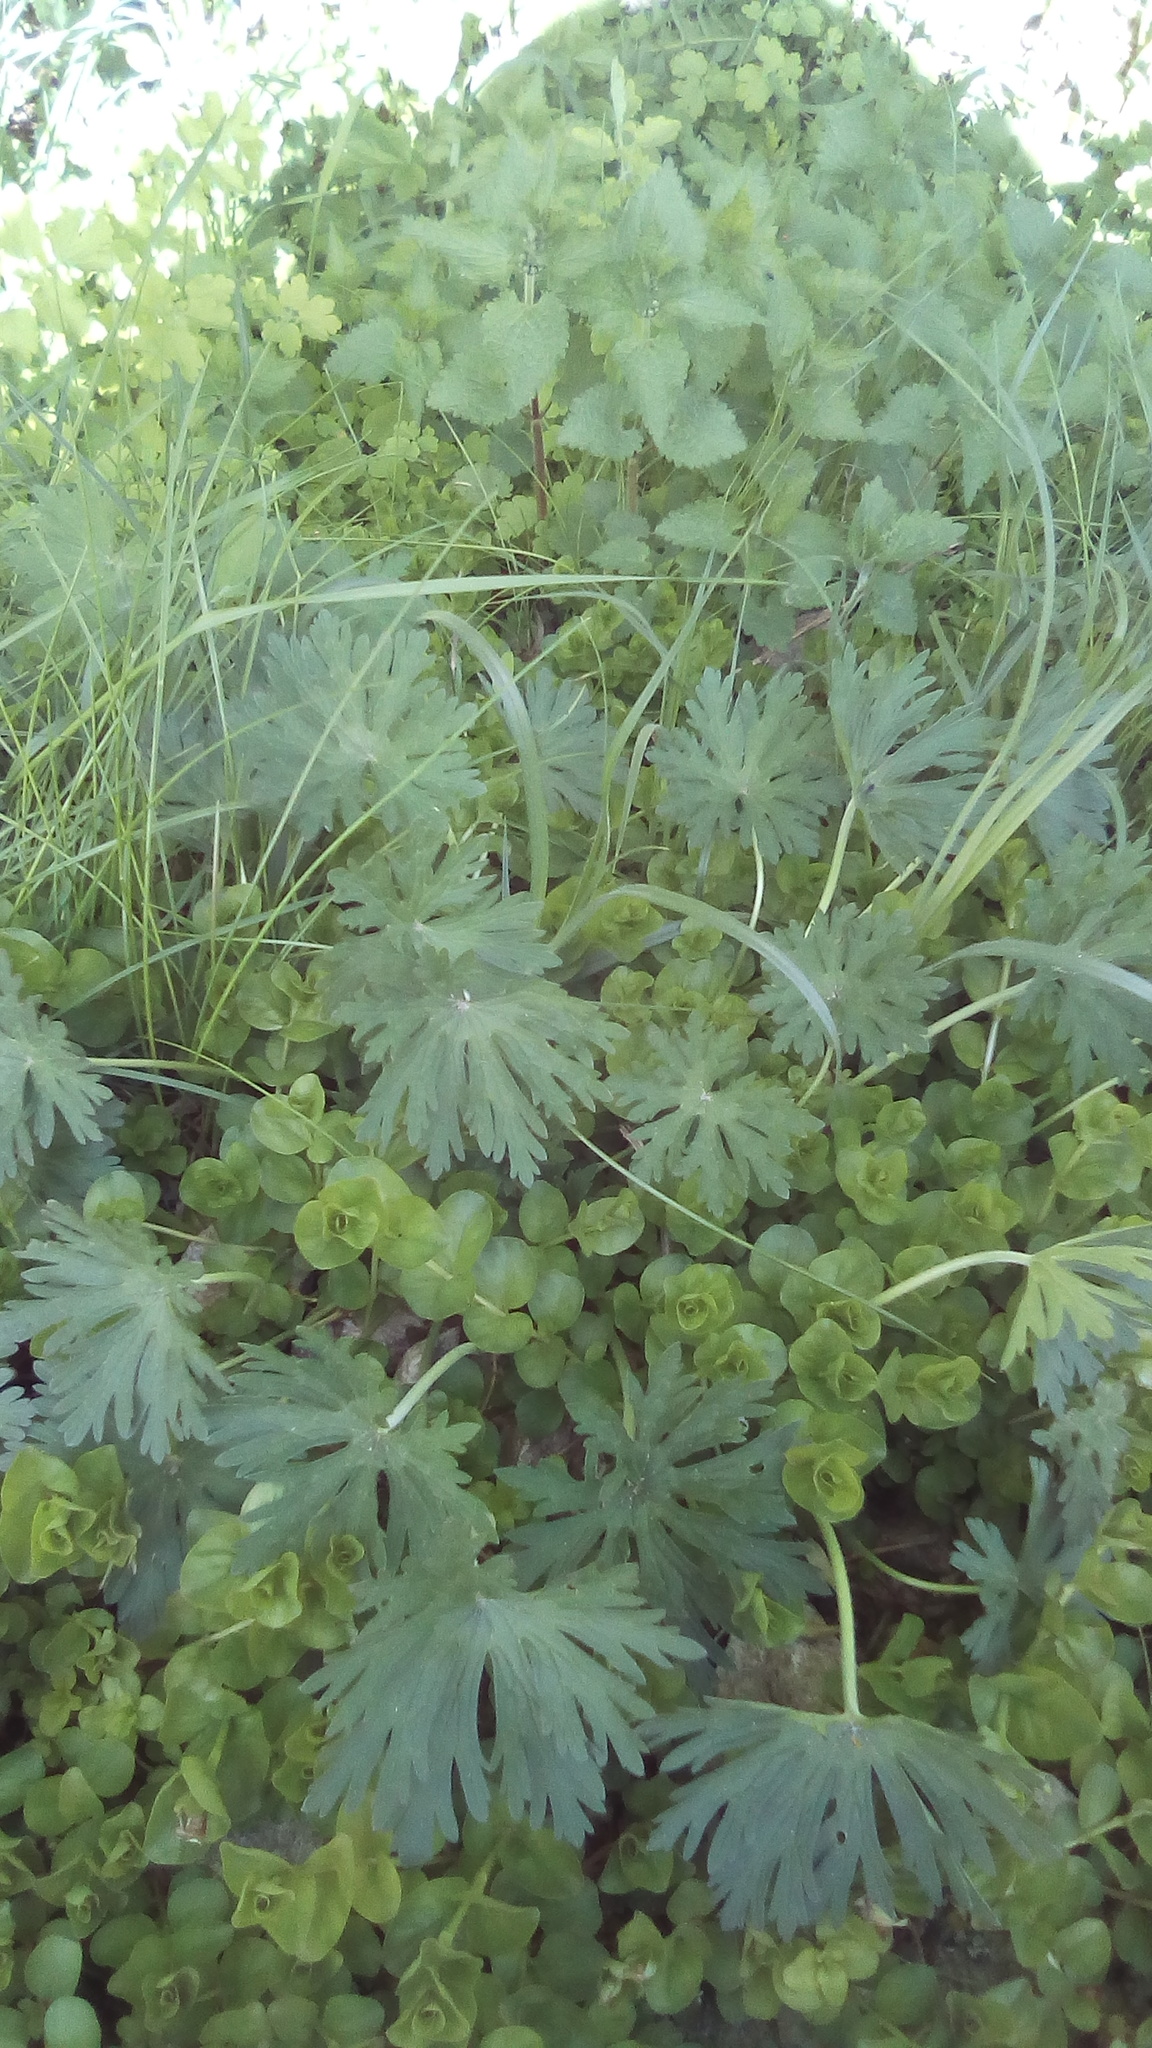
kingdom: Plantae
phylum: Tracheophyta
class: Magnoliopsida
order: Ericales
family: Primulaceae
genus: Lysimachia
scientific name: Lysimachia nummularia
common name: Moneywort
